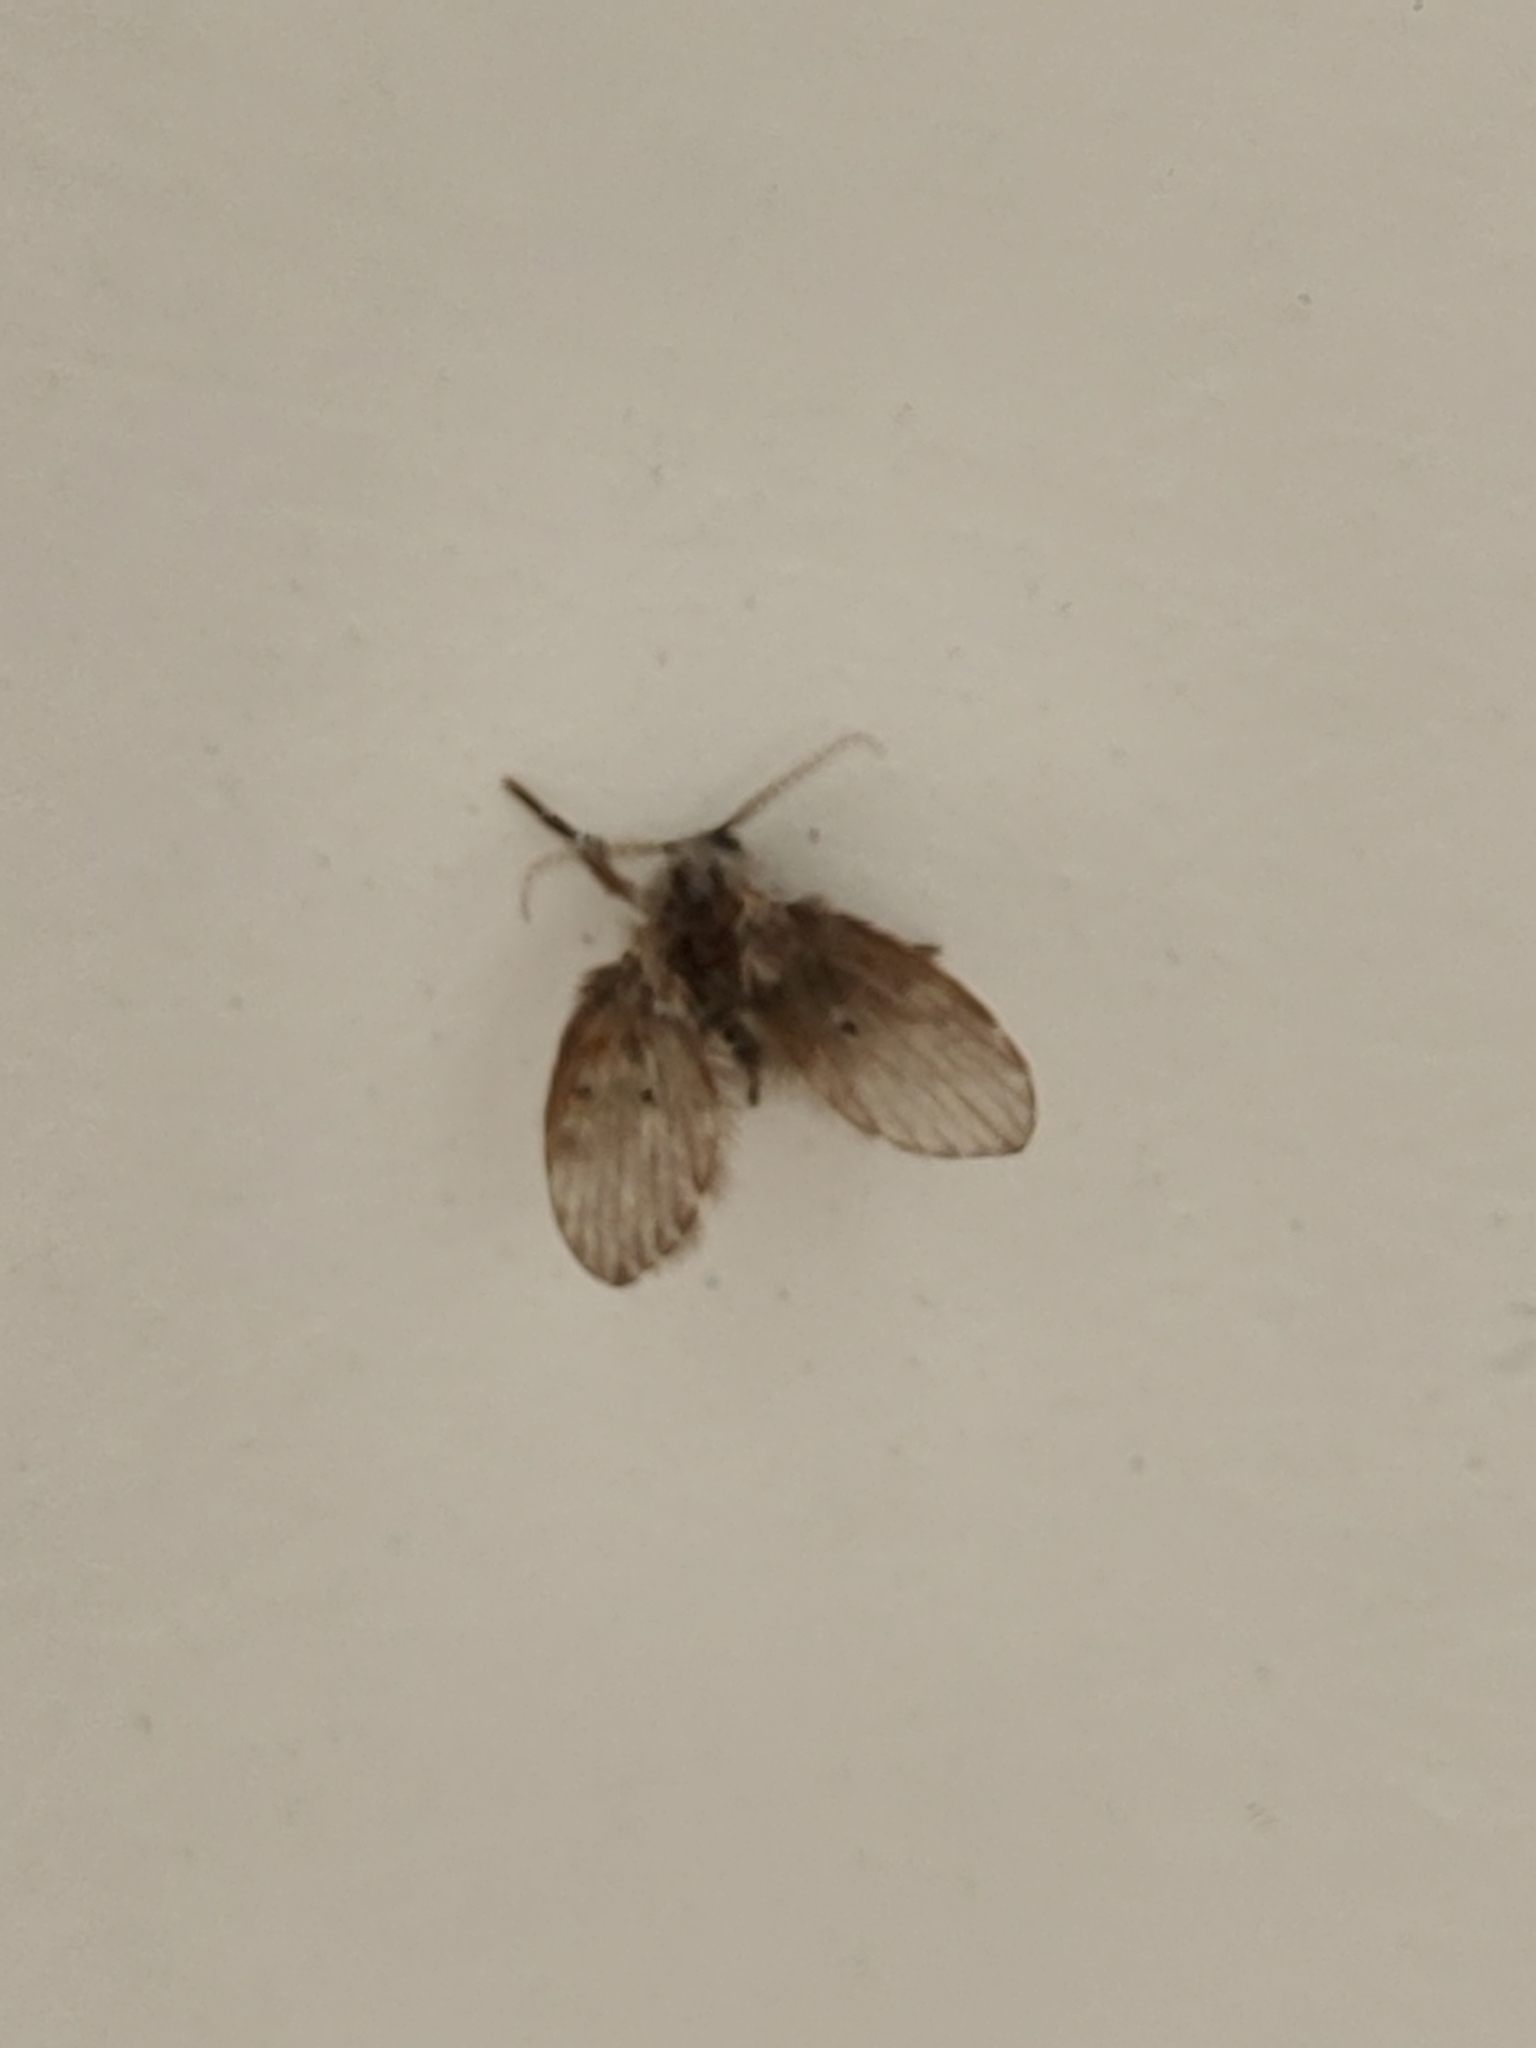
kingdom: Animalia
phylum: Arthropoda
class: Insecta
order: Diptera
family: Psychodidae
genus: Clogmia
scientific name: Clogmia albipunctatus
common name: White-spotted moth fly
